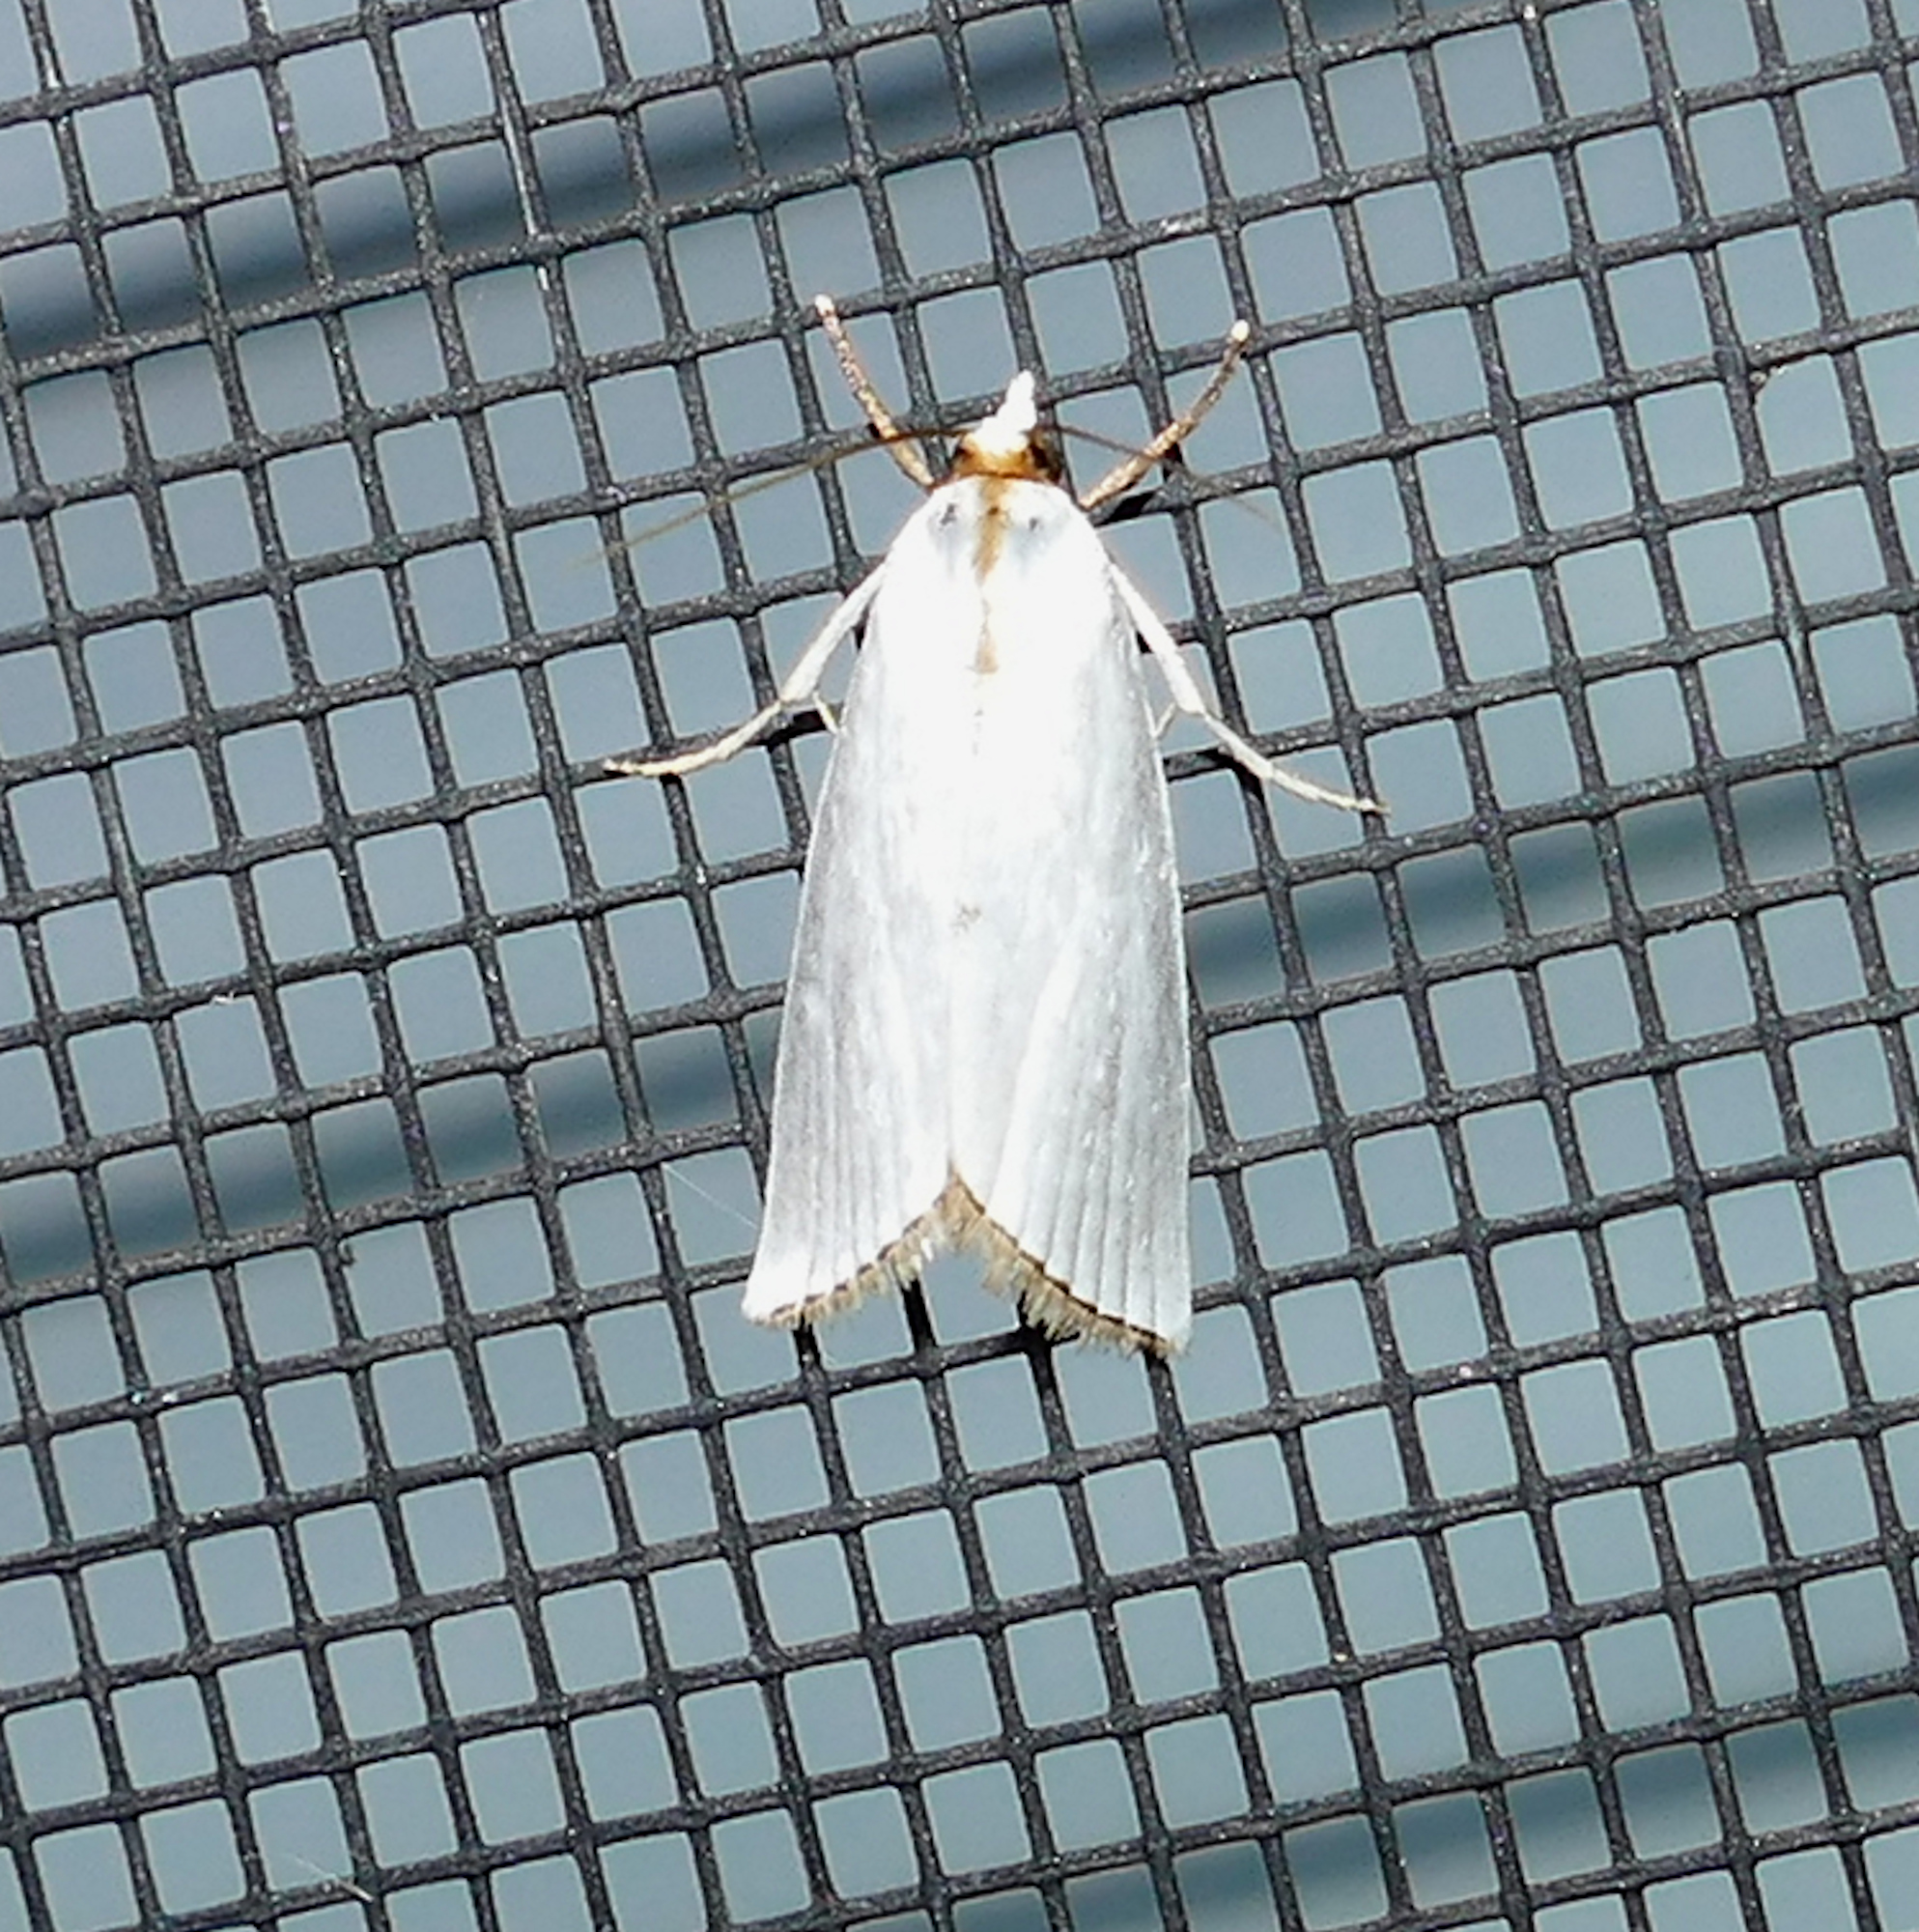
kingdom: Animalia
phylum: Arthropoda
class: Insecta
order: Lepidoptera
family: Crambidae
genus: Argyria
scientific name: Argyria nivalis
